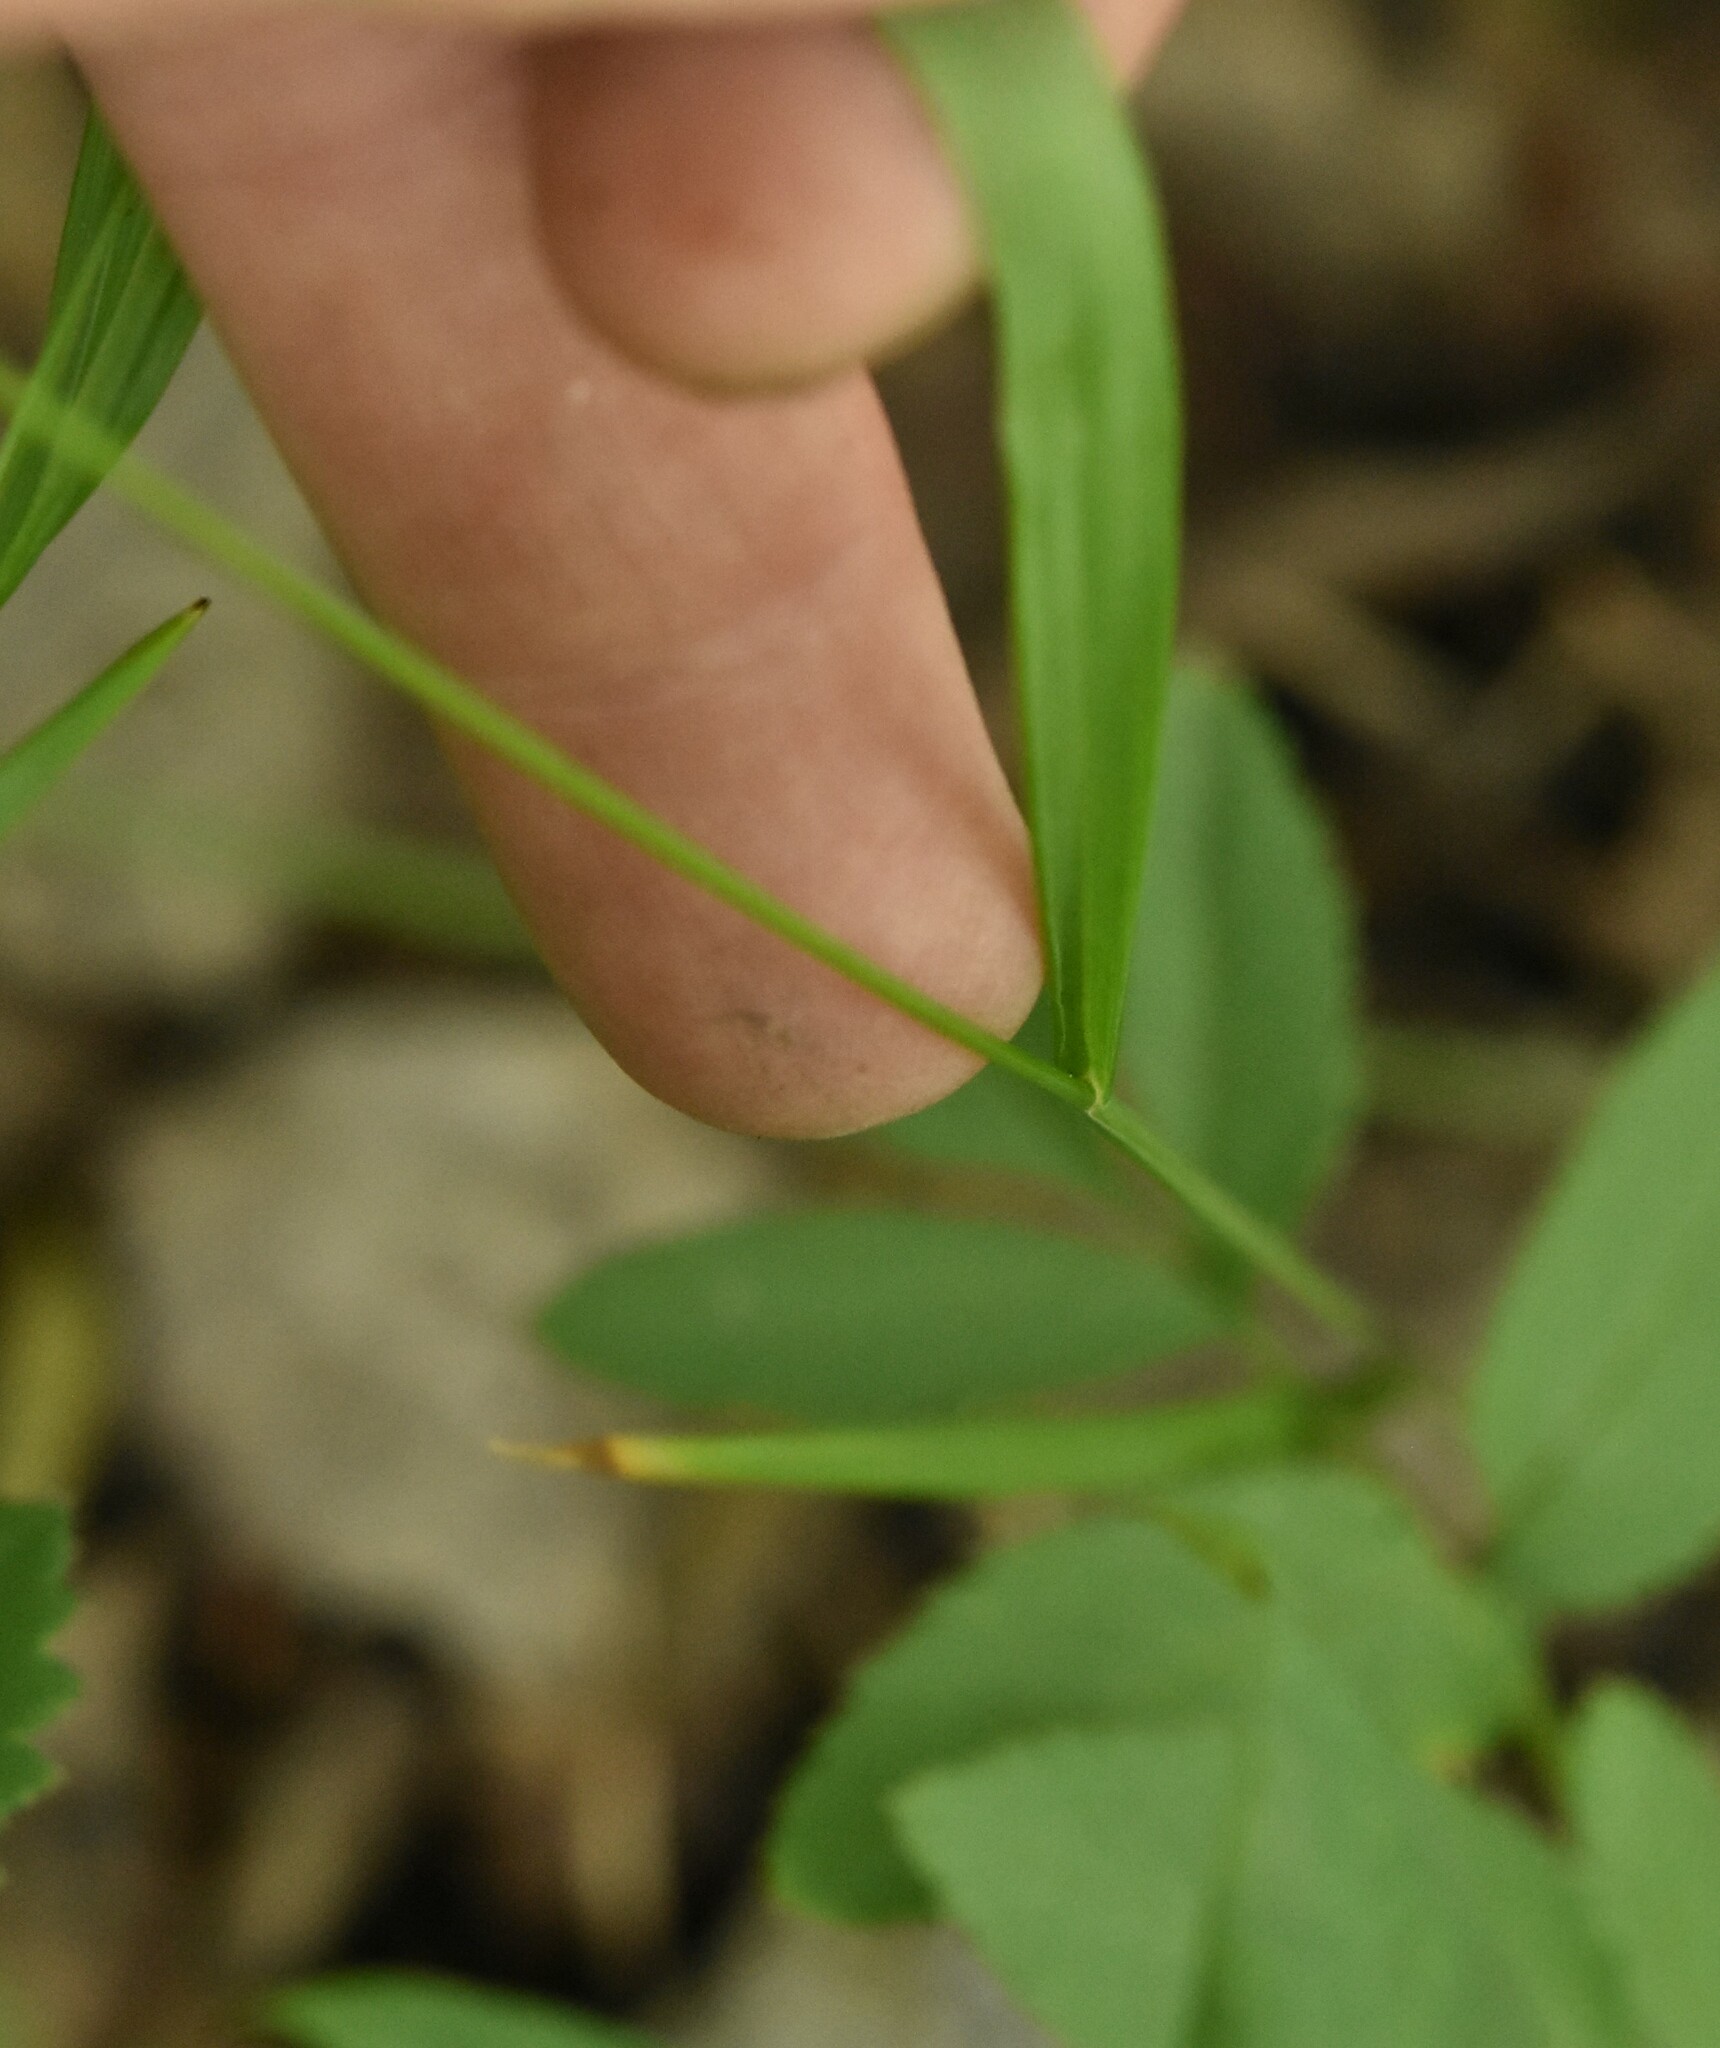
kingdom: Plantae
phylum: Tracheophyta
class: Liliopsida
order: Poales
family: Poaceae
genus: Melica
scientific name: Melica nutans
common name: Mountain melick
